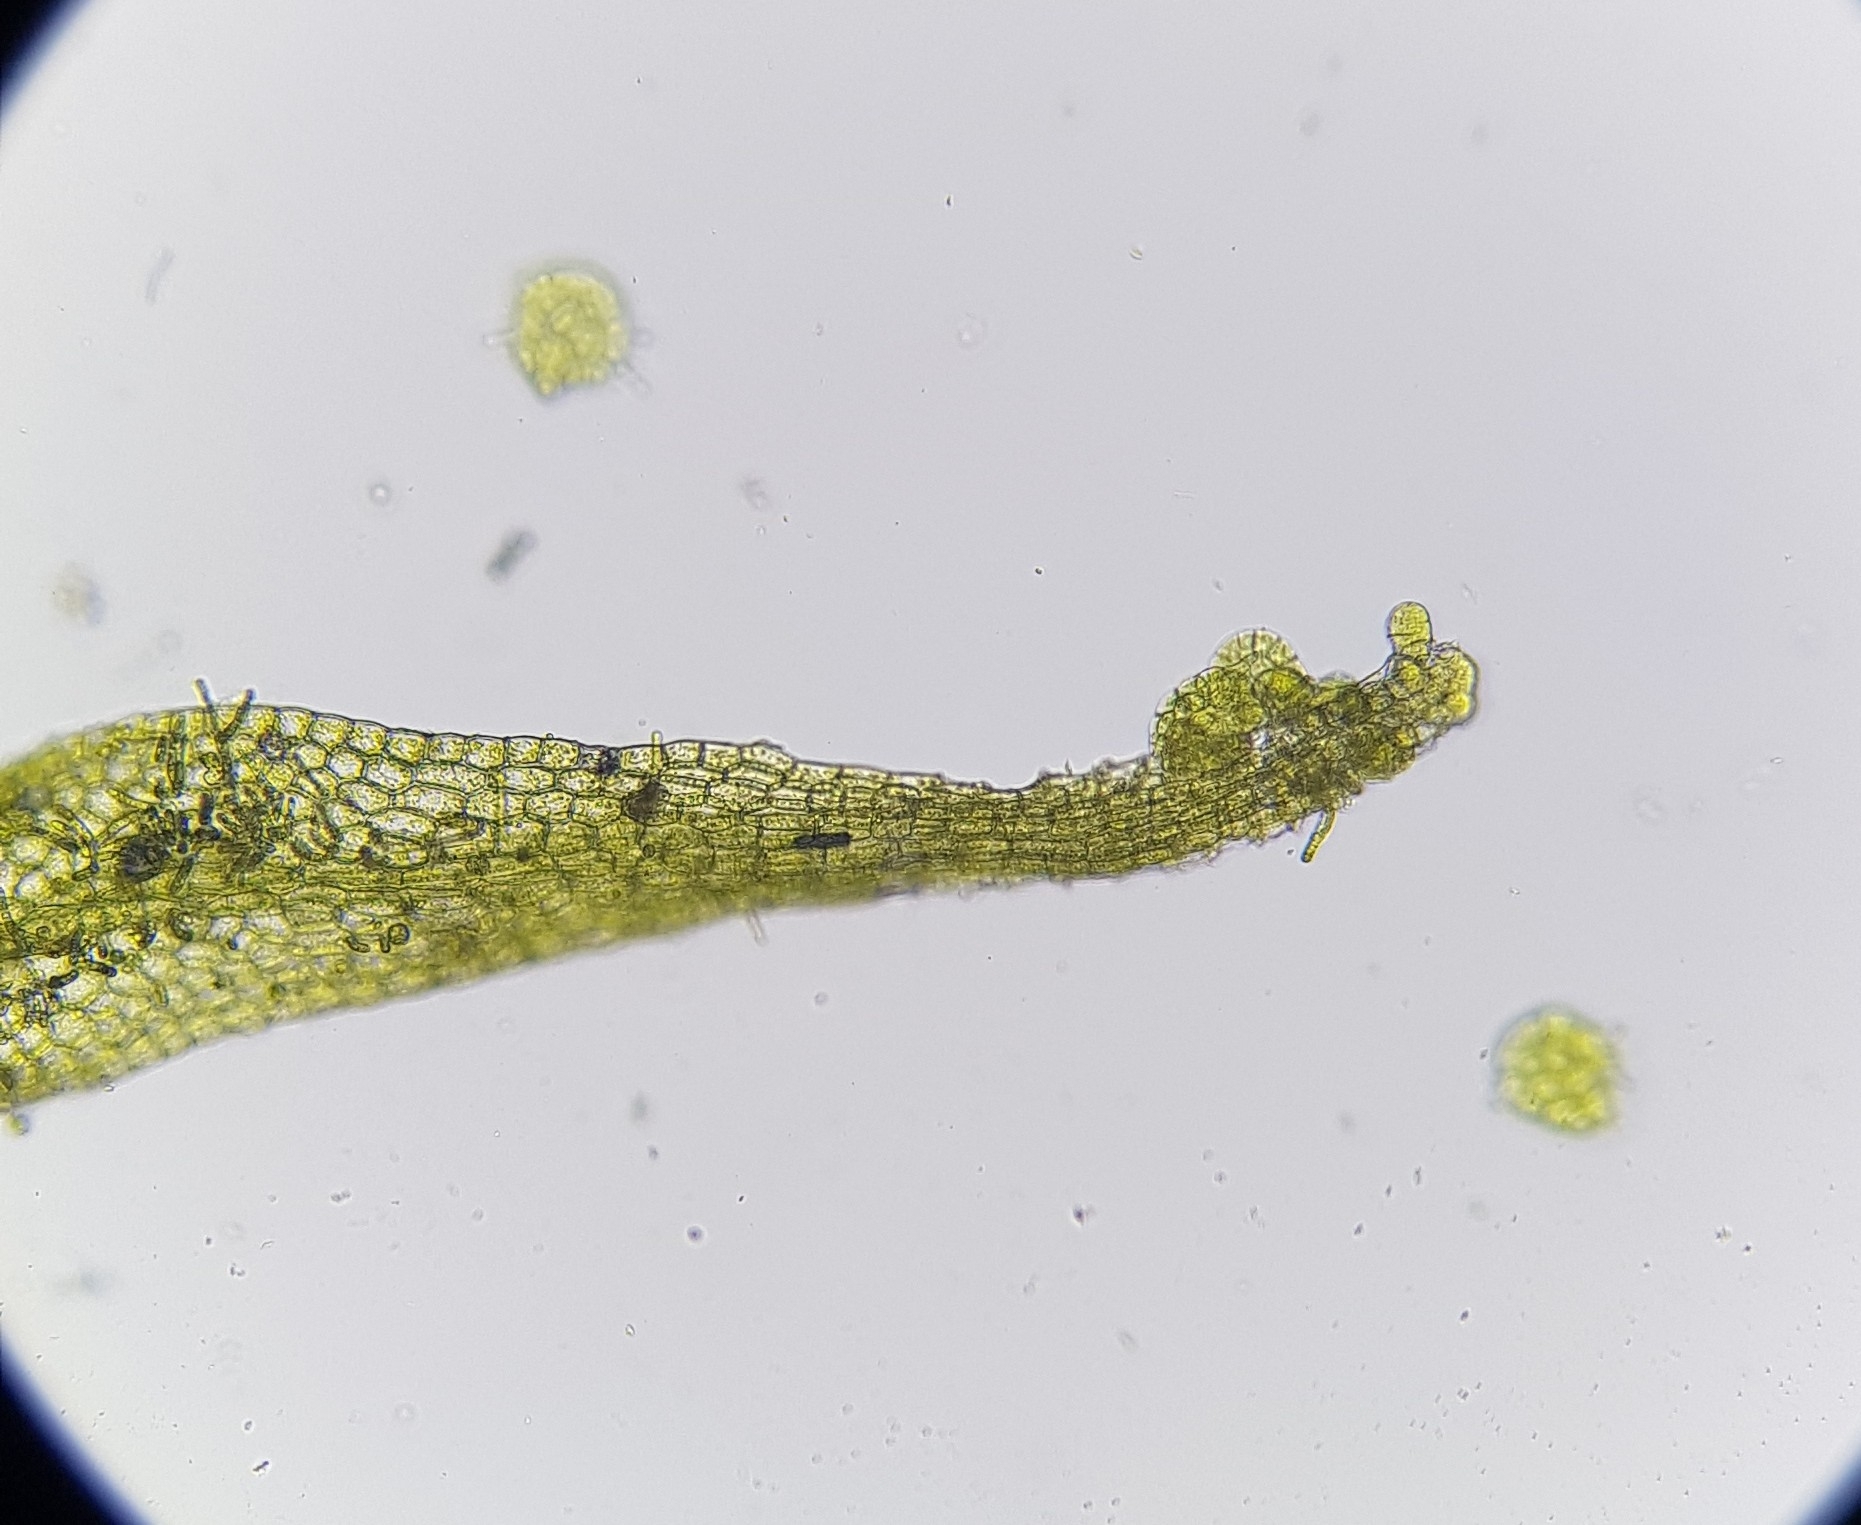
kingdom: Plantae
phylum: Marchantiophyta
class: Jungermanniopsida
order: Metzgeriales
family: Metzgeriaceae
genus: Metzgeria
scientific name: Metzgeria violacea
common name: Blueish veilwort
